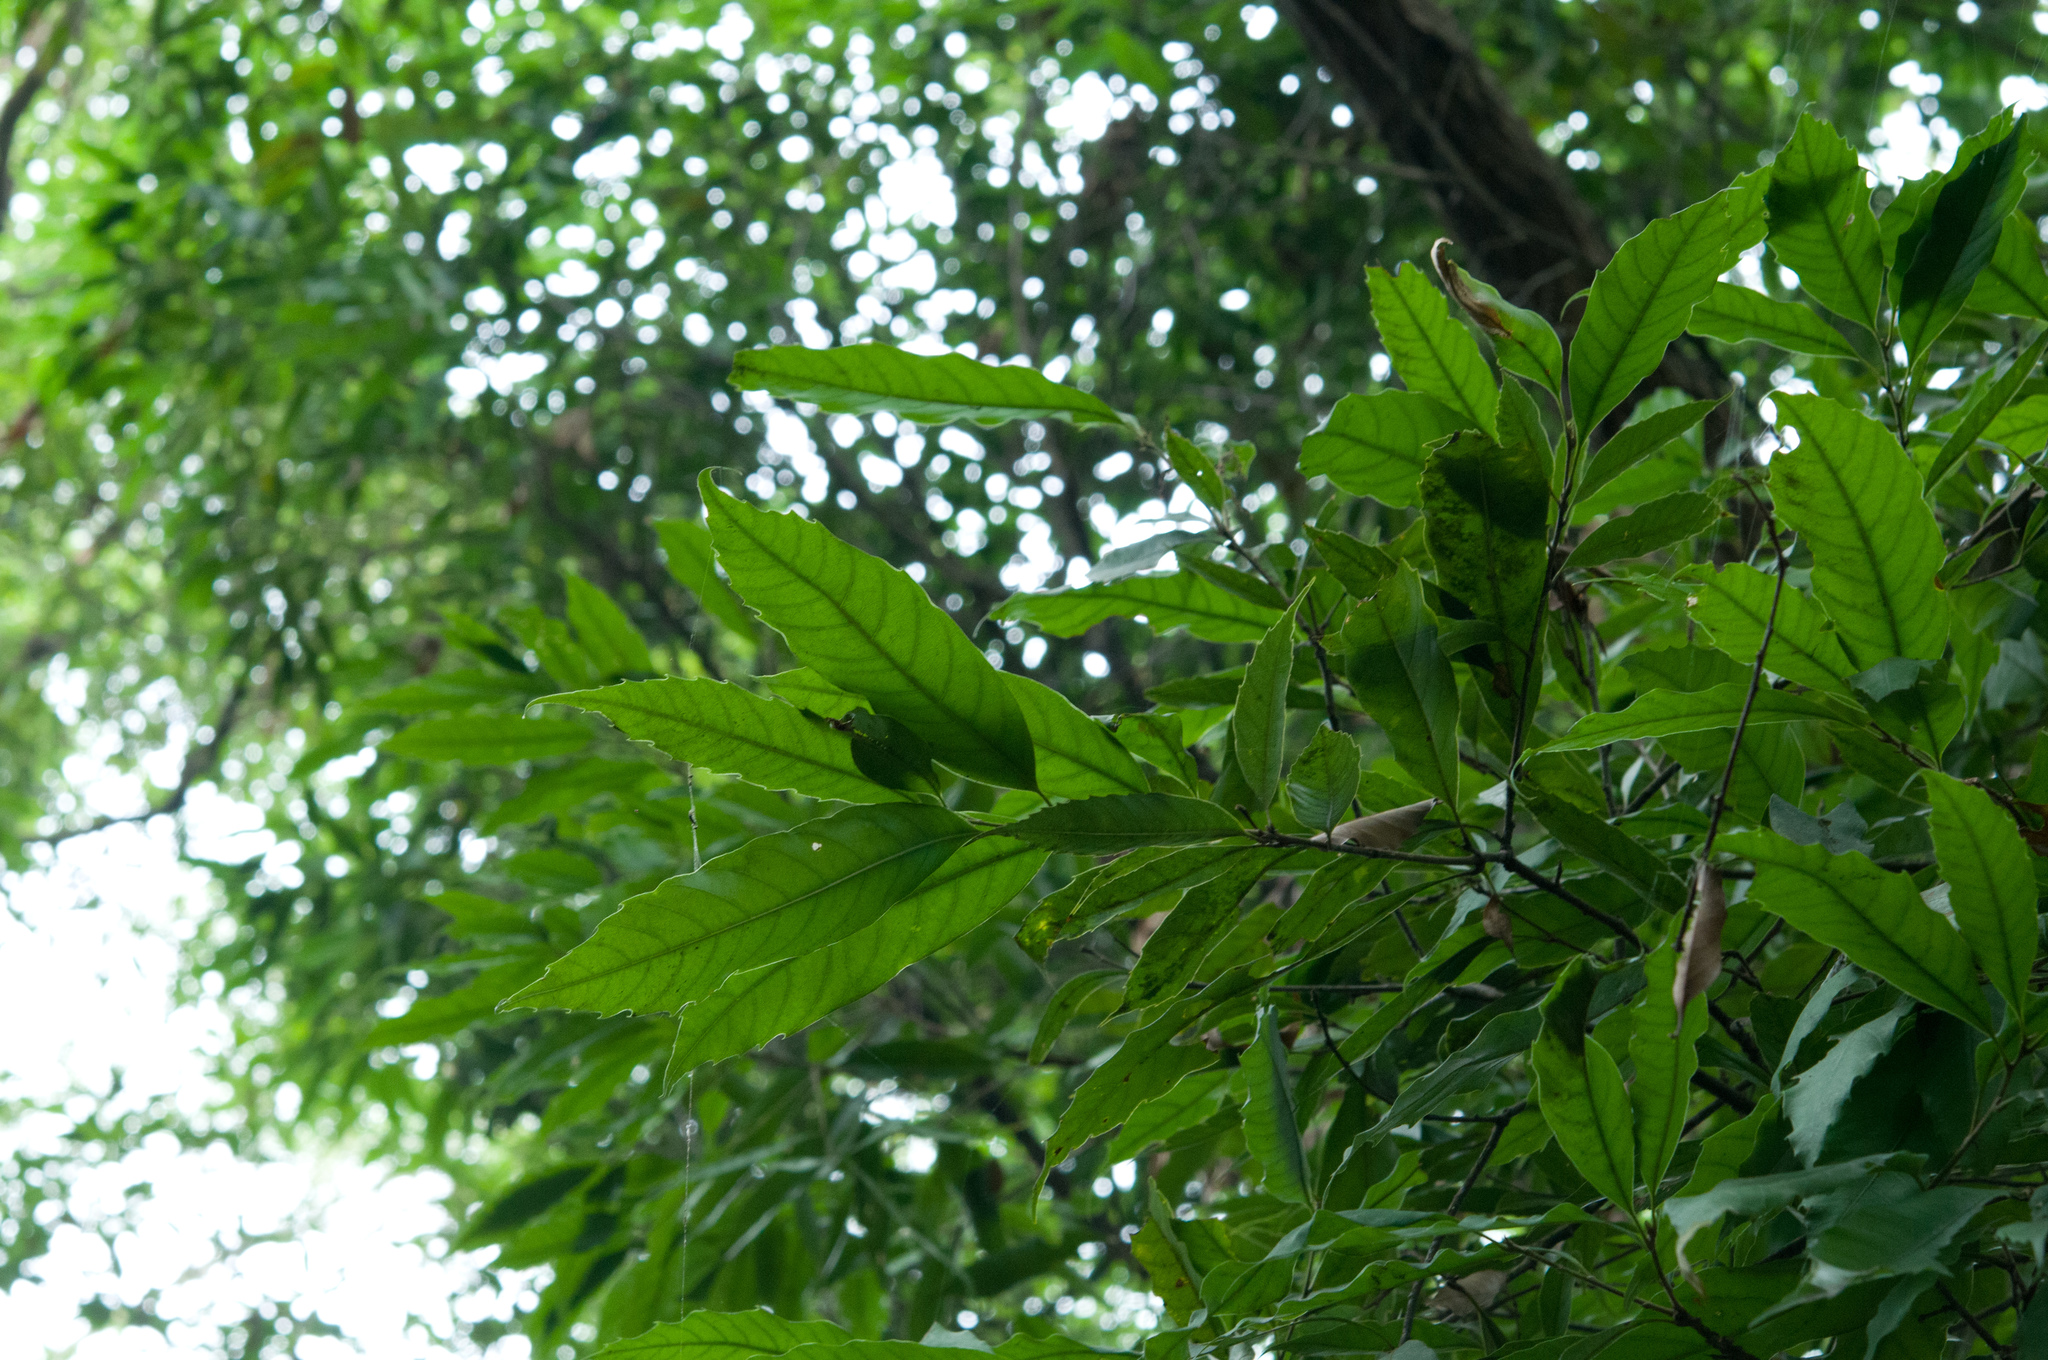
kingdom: Plantae
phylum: Tracheophyta
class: Magnoliopsida
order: Fagales
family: Fagaceae
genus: Castanopsis
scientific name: Castanopsis chinensis
